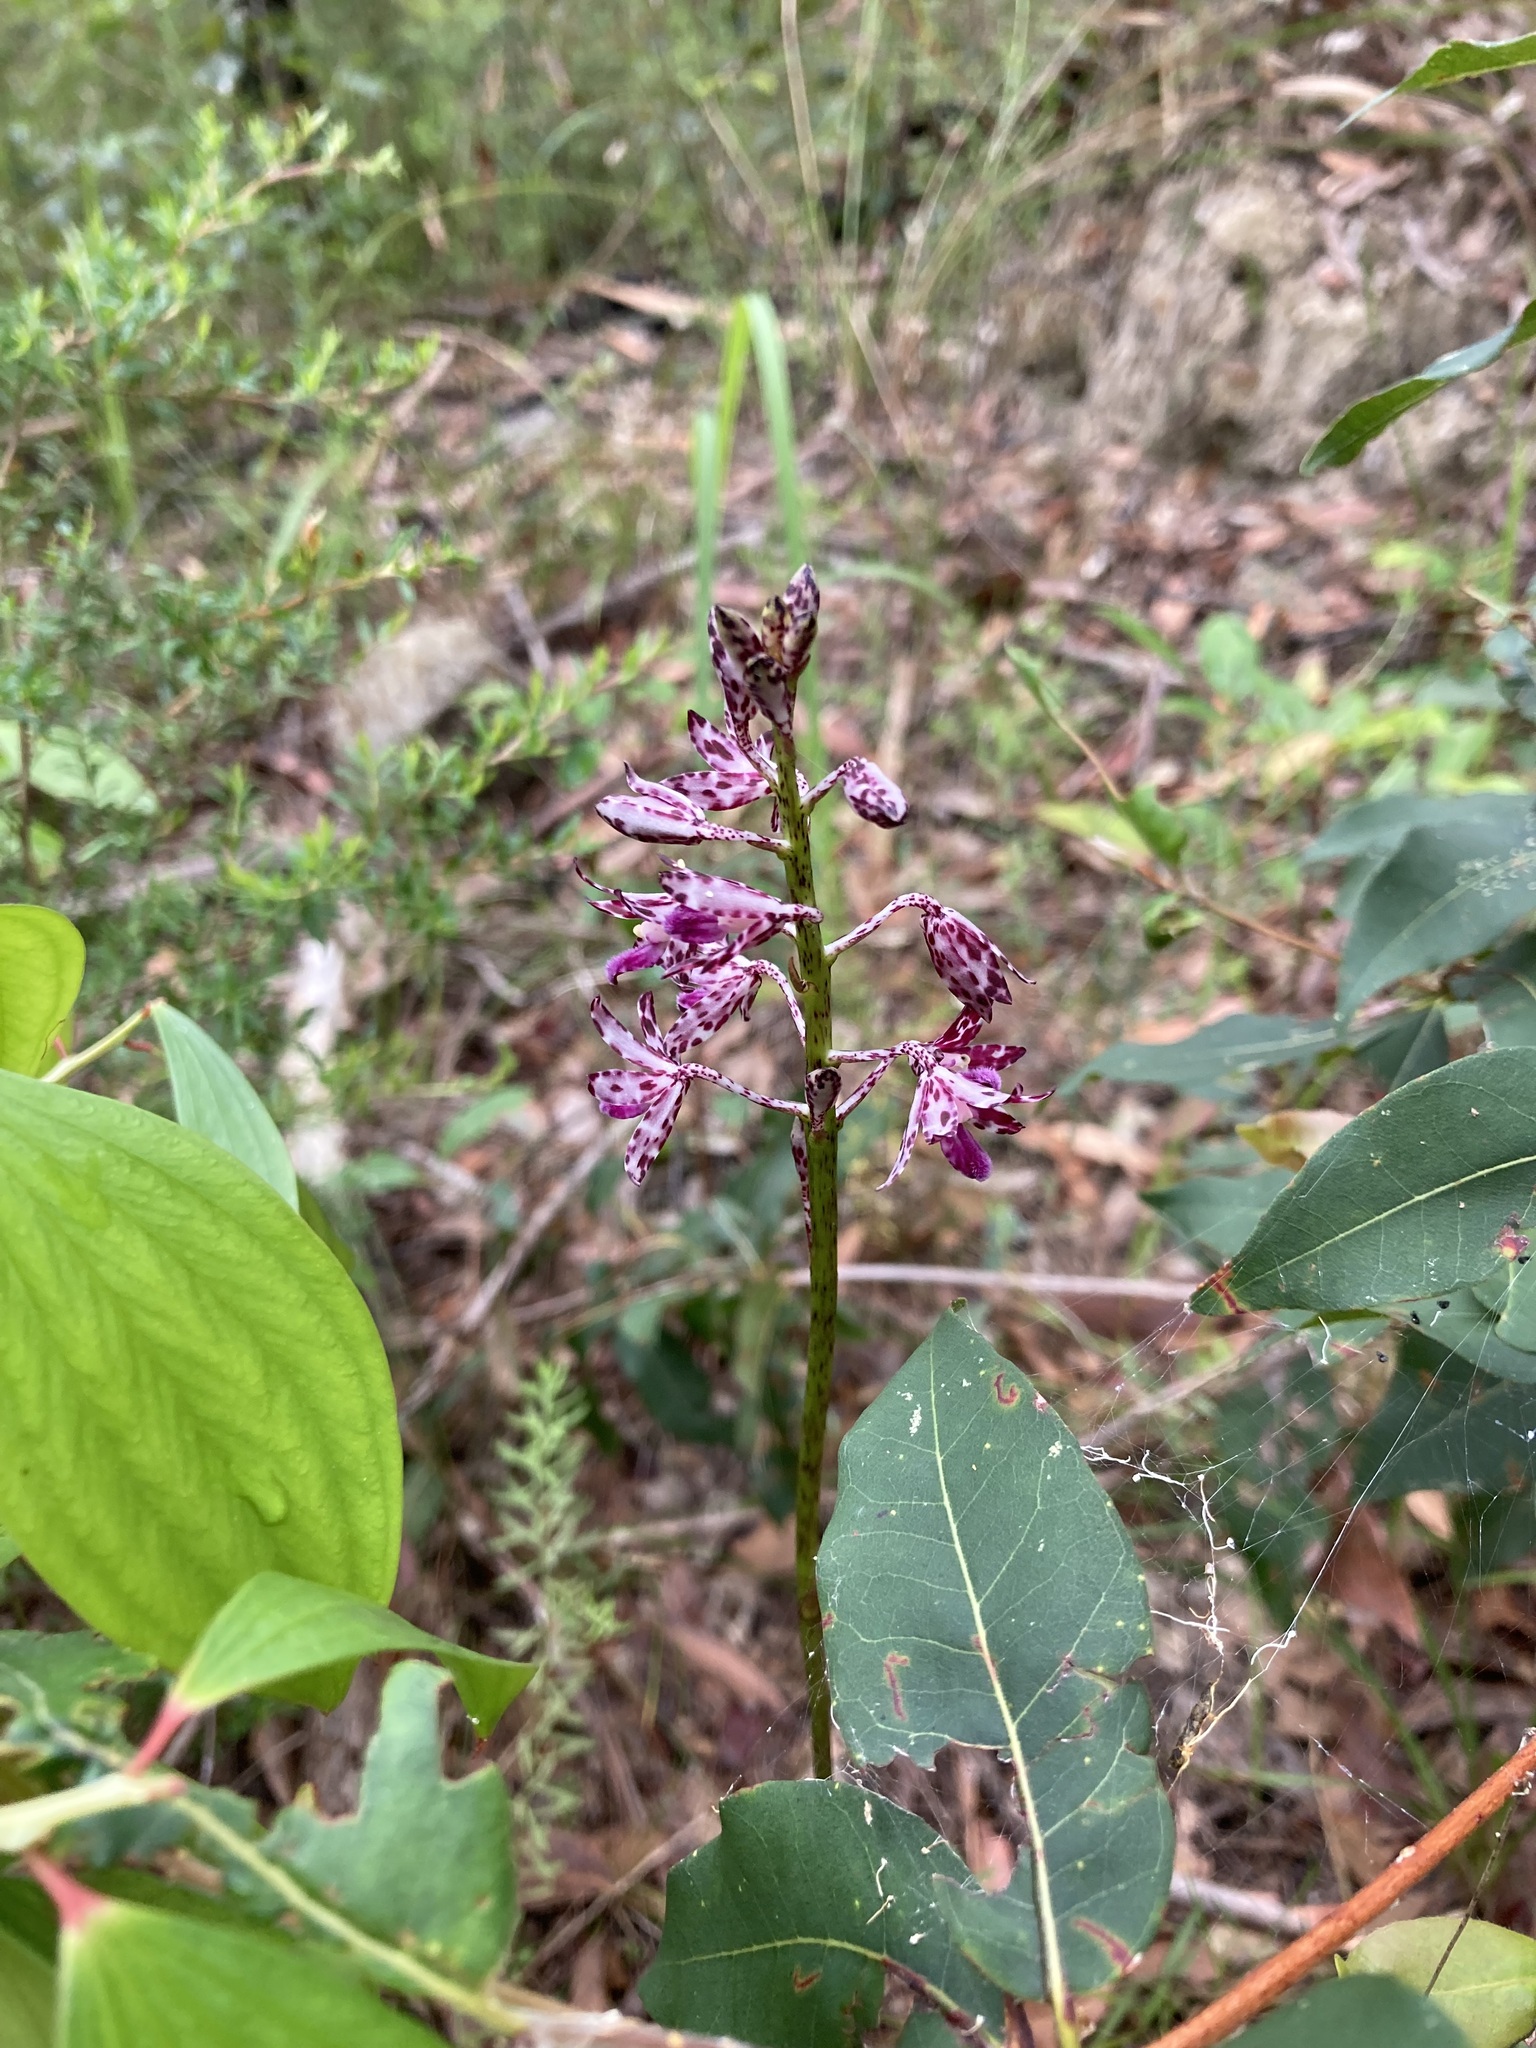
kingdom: Plantae
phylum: Tracheophyta
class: Liliopsida
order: Asparagales
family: Orchidaceae
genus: Dipodium
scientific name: Dipodium variegatum
